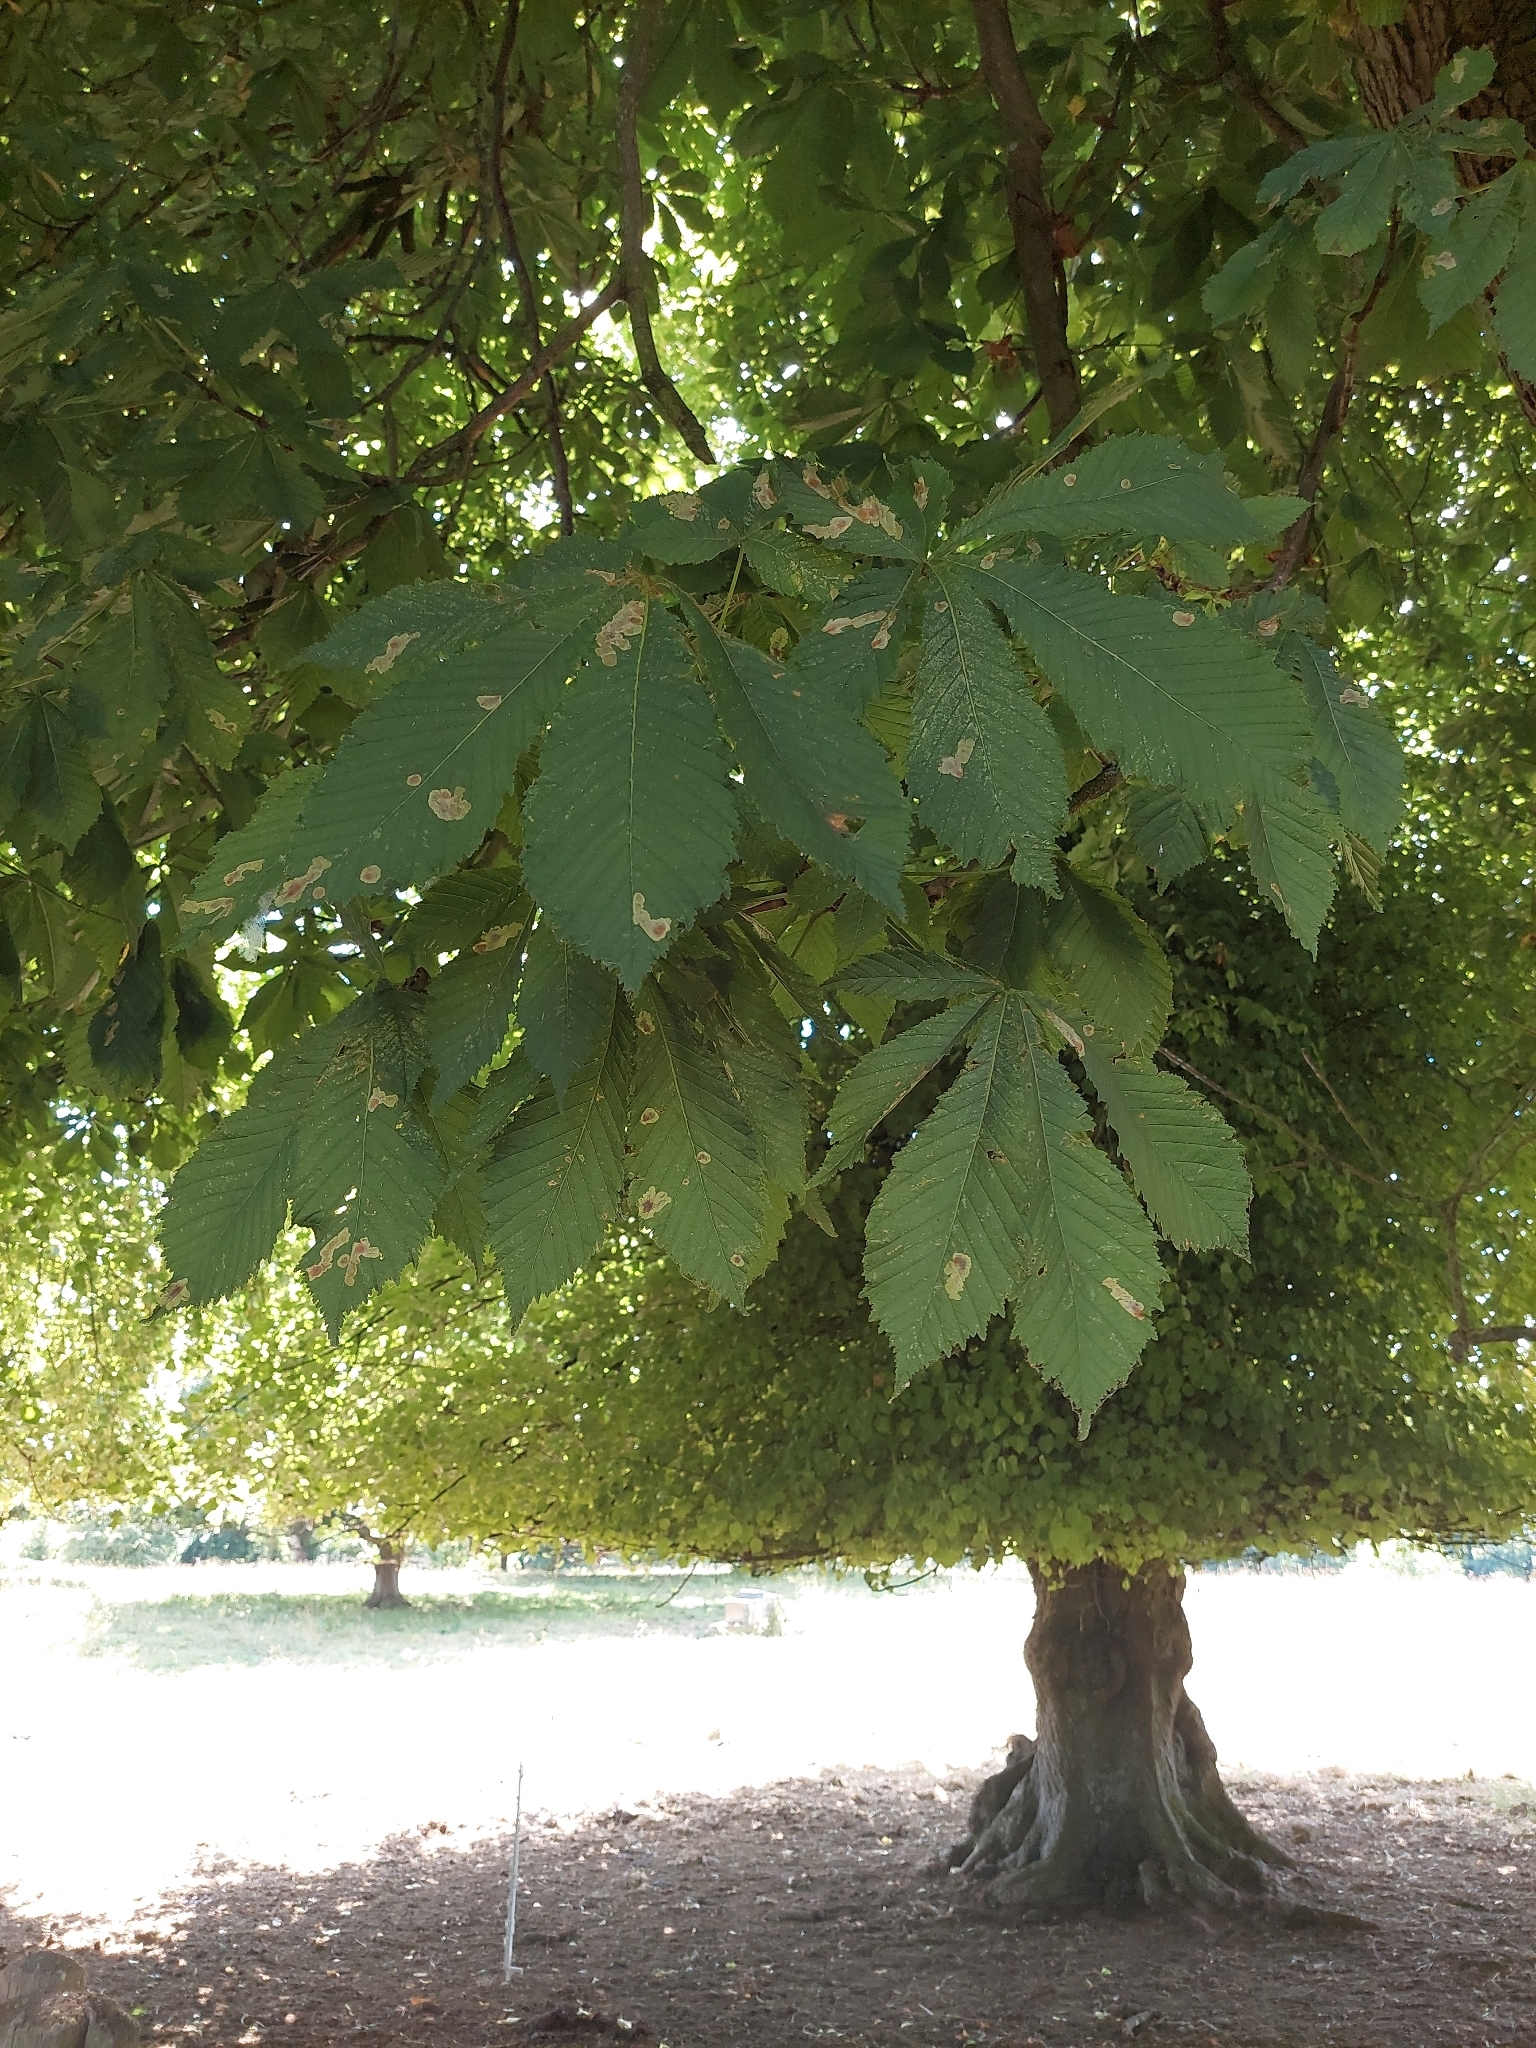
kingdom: Plantae
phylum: Tracheophyta
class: Magnoliopsida
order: Sapindales
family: Sapindaceae
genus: Aesculus
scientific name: Aesculus hippocastanum
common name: Horse-chestnut
